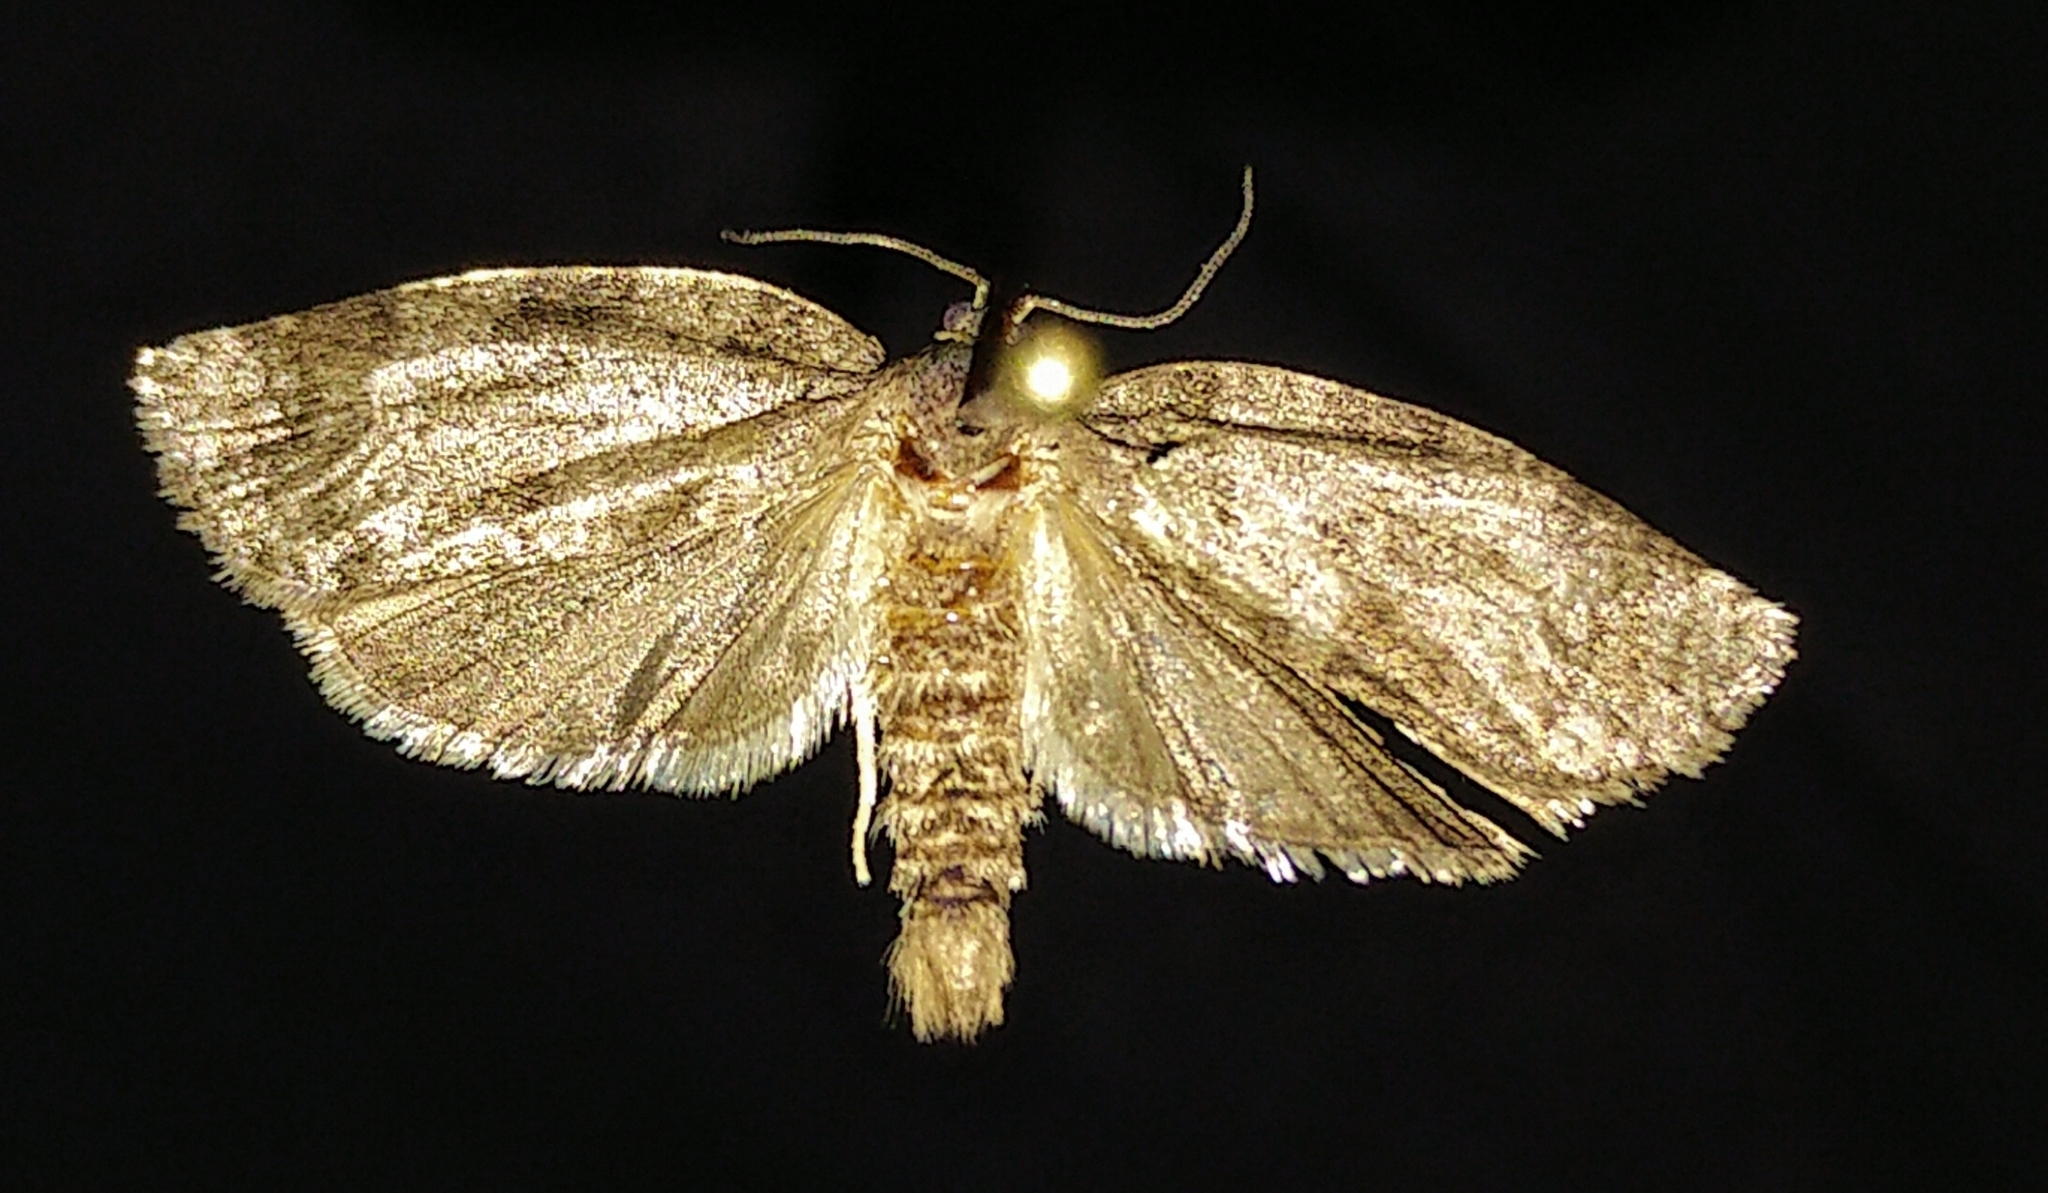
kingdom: Animalia
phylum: Arthropoda
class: Insecta
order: Lepidoptera
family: Tortricidae
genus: Choristoneura
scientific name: Choristoneura conflictana
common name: Large aspen tortrix
